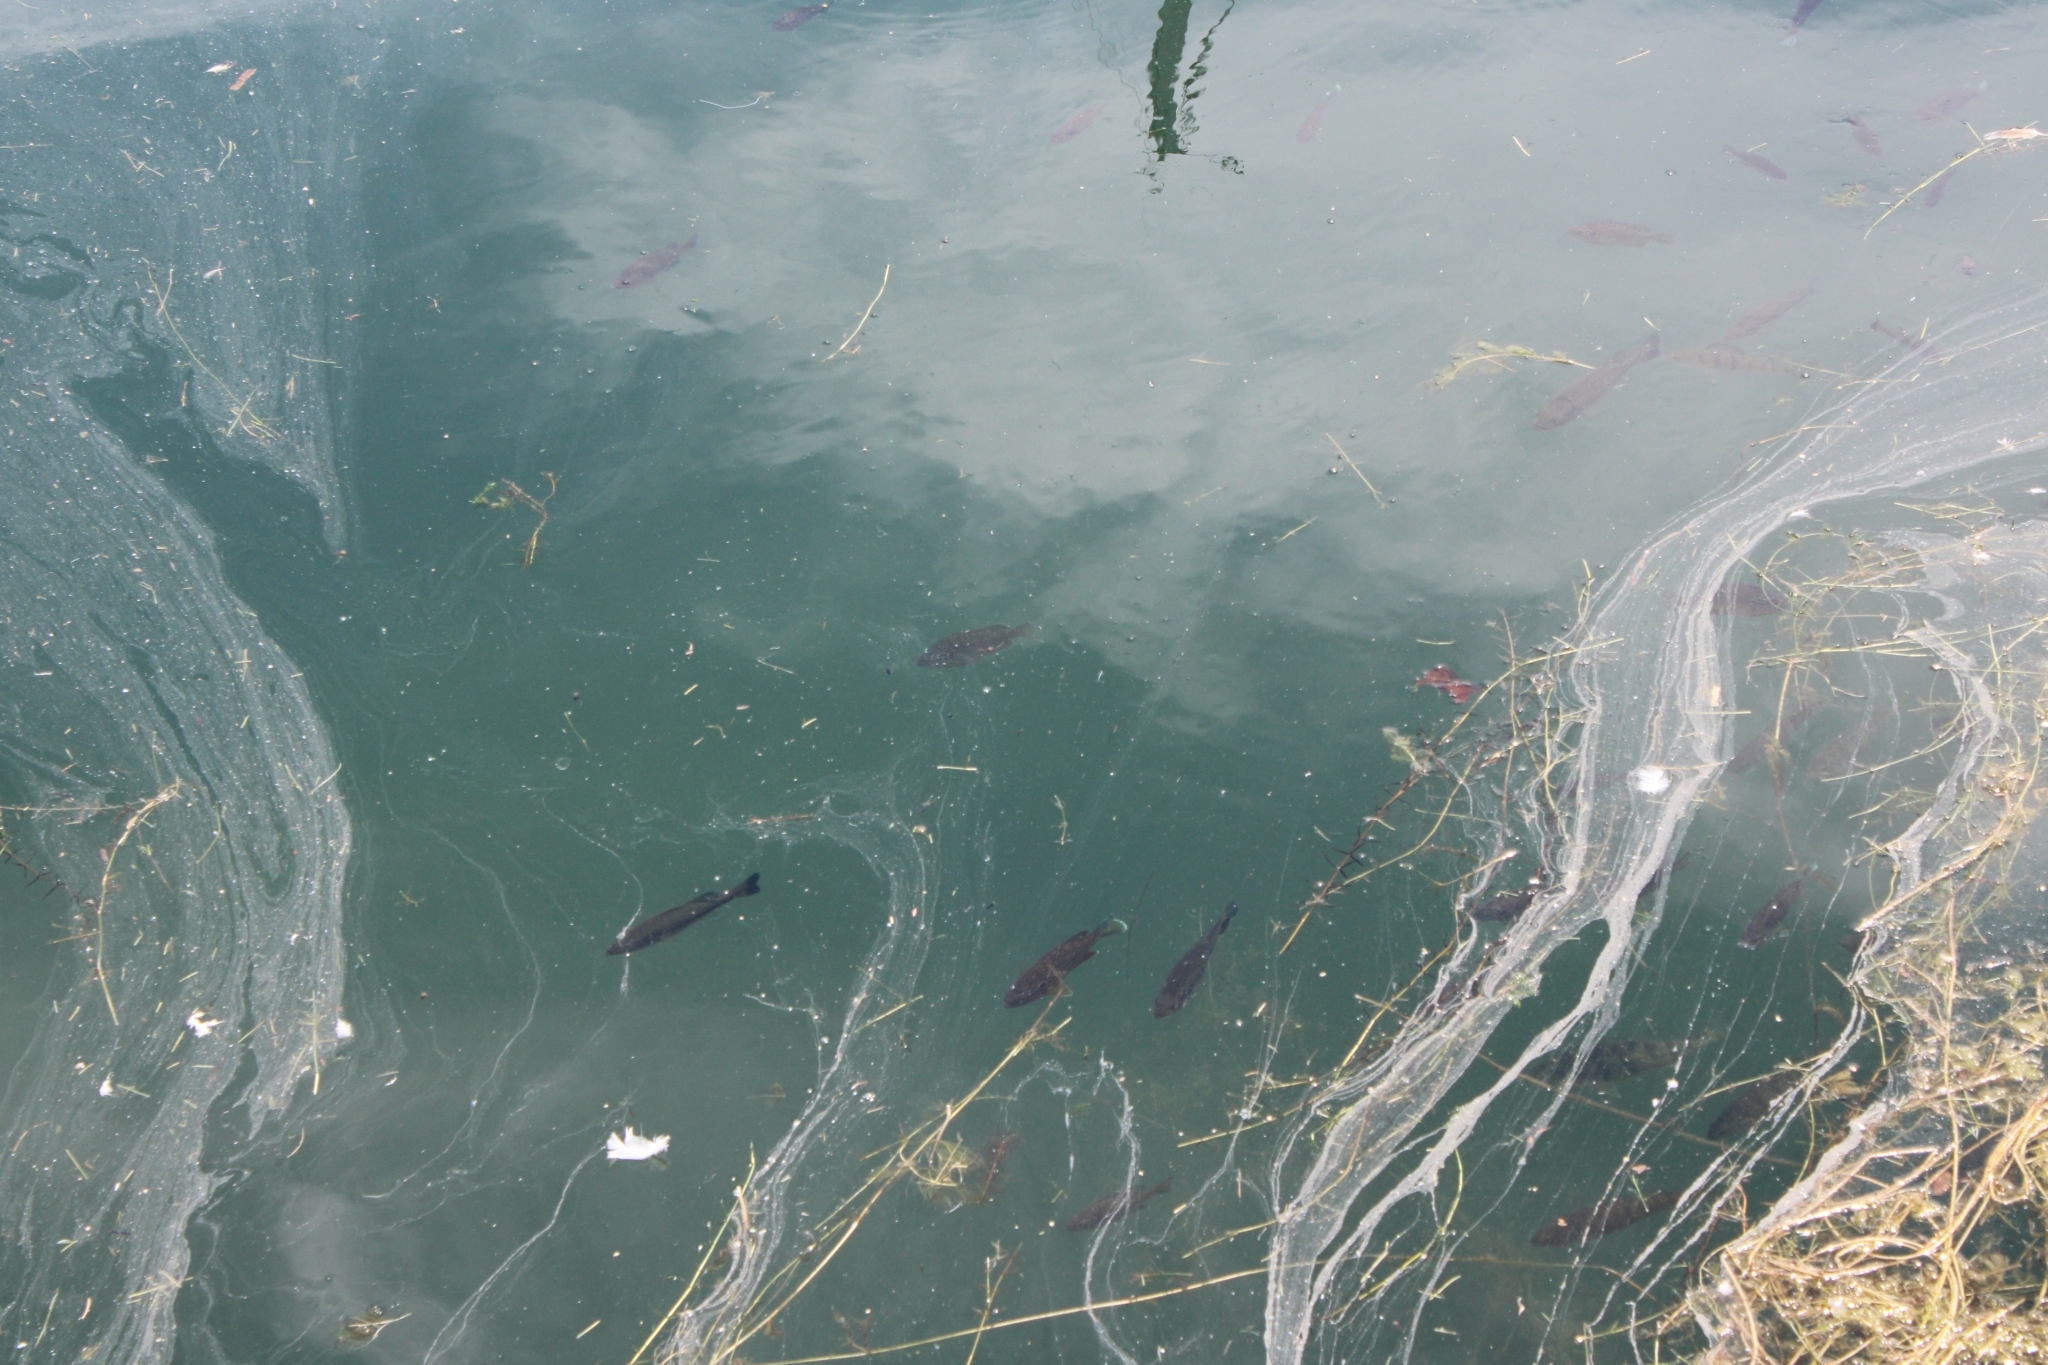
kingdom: Animalia
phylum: Chordata
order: Perciformes
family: Centrarchidae
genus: Micropterus
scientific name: Micropterus
